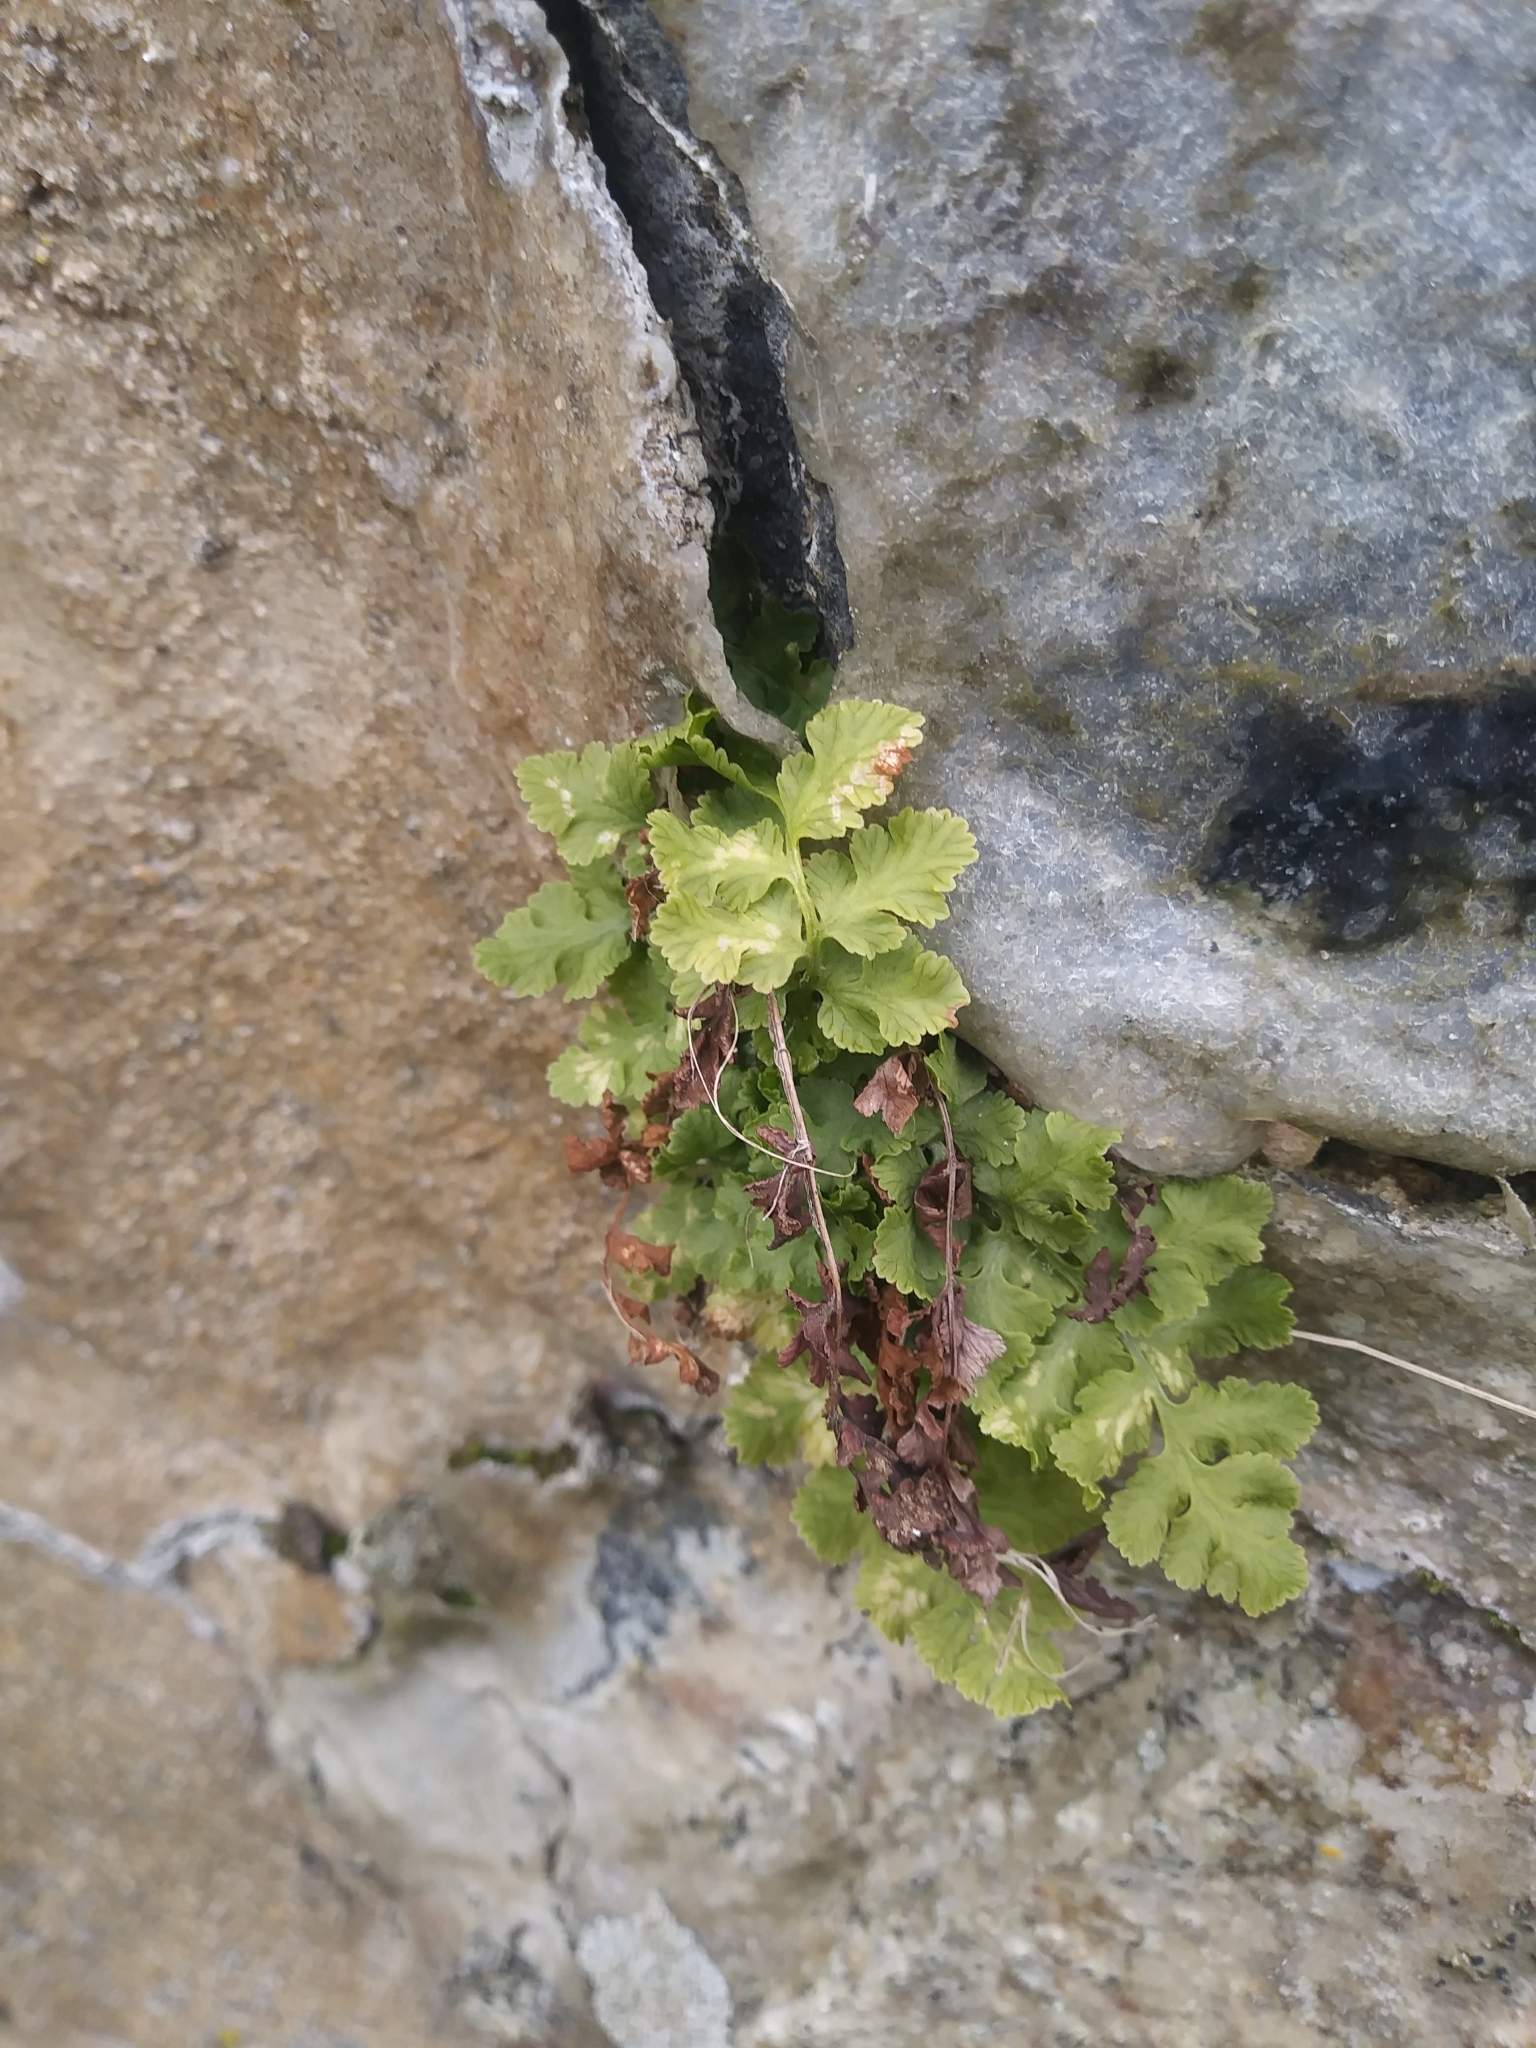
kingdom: Plantae
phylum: Tracheophyta
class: Polypodiopsida
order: Polypodiales
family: Woodsiaceae
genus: Physematium
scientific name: Physematium obtusum
